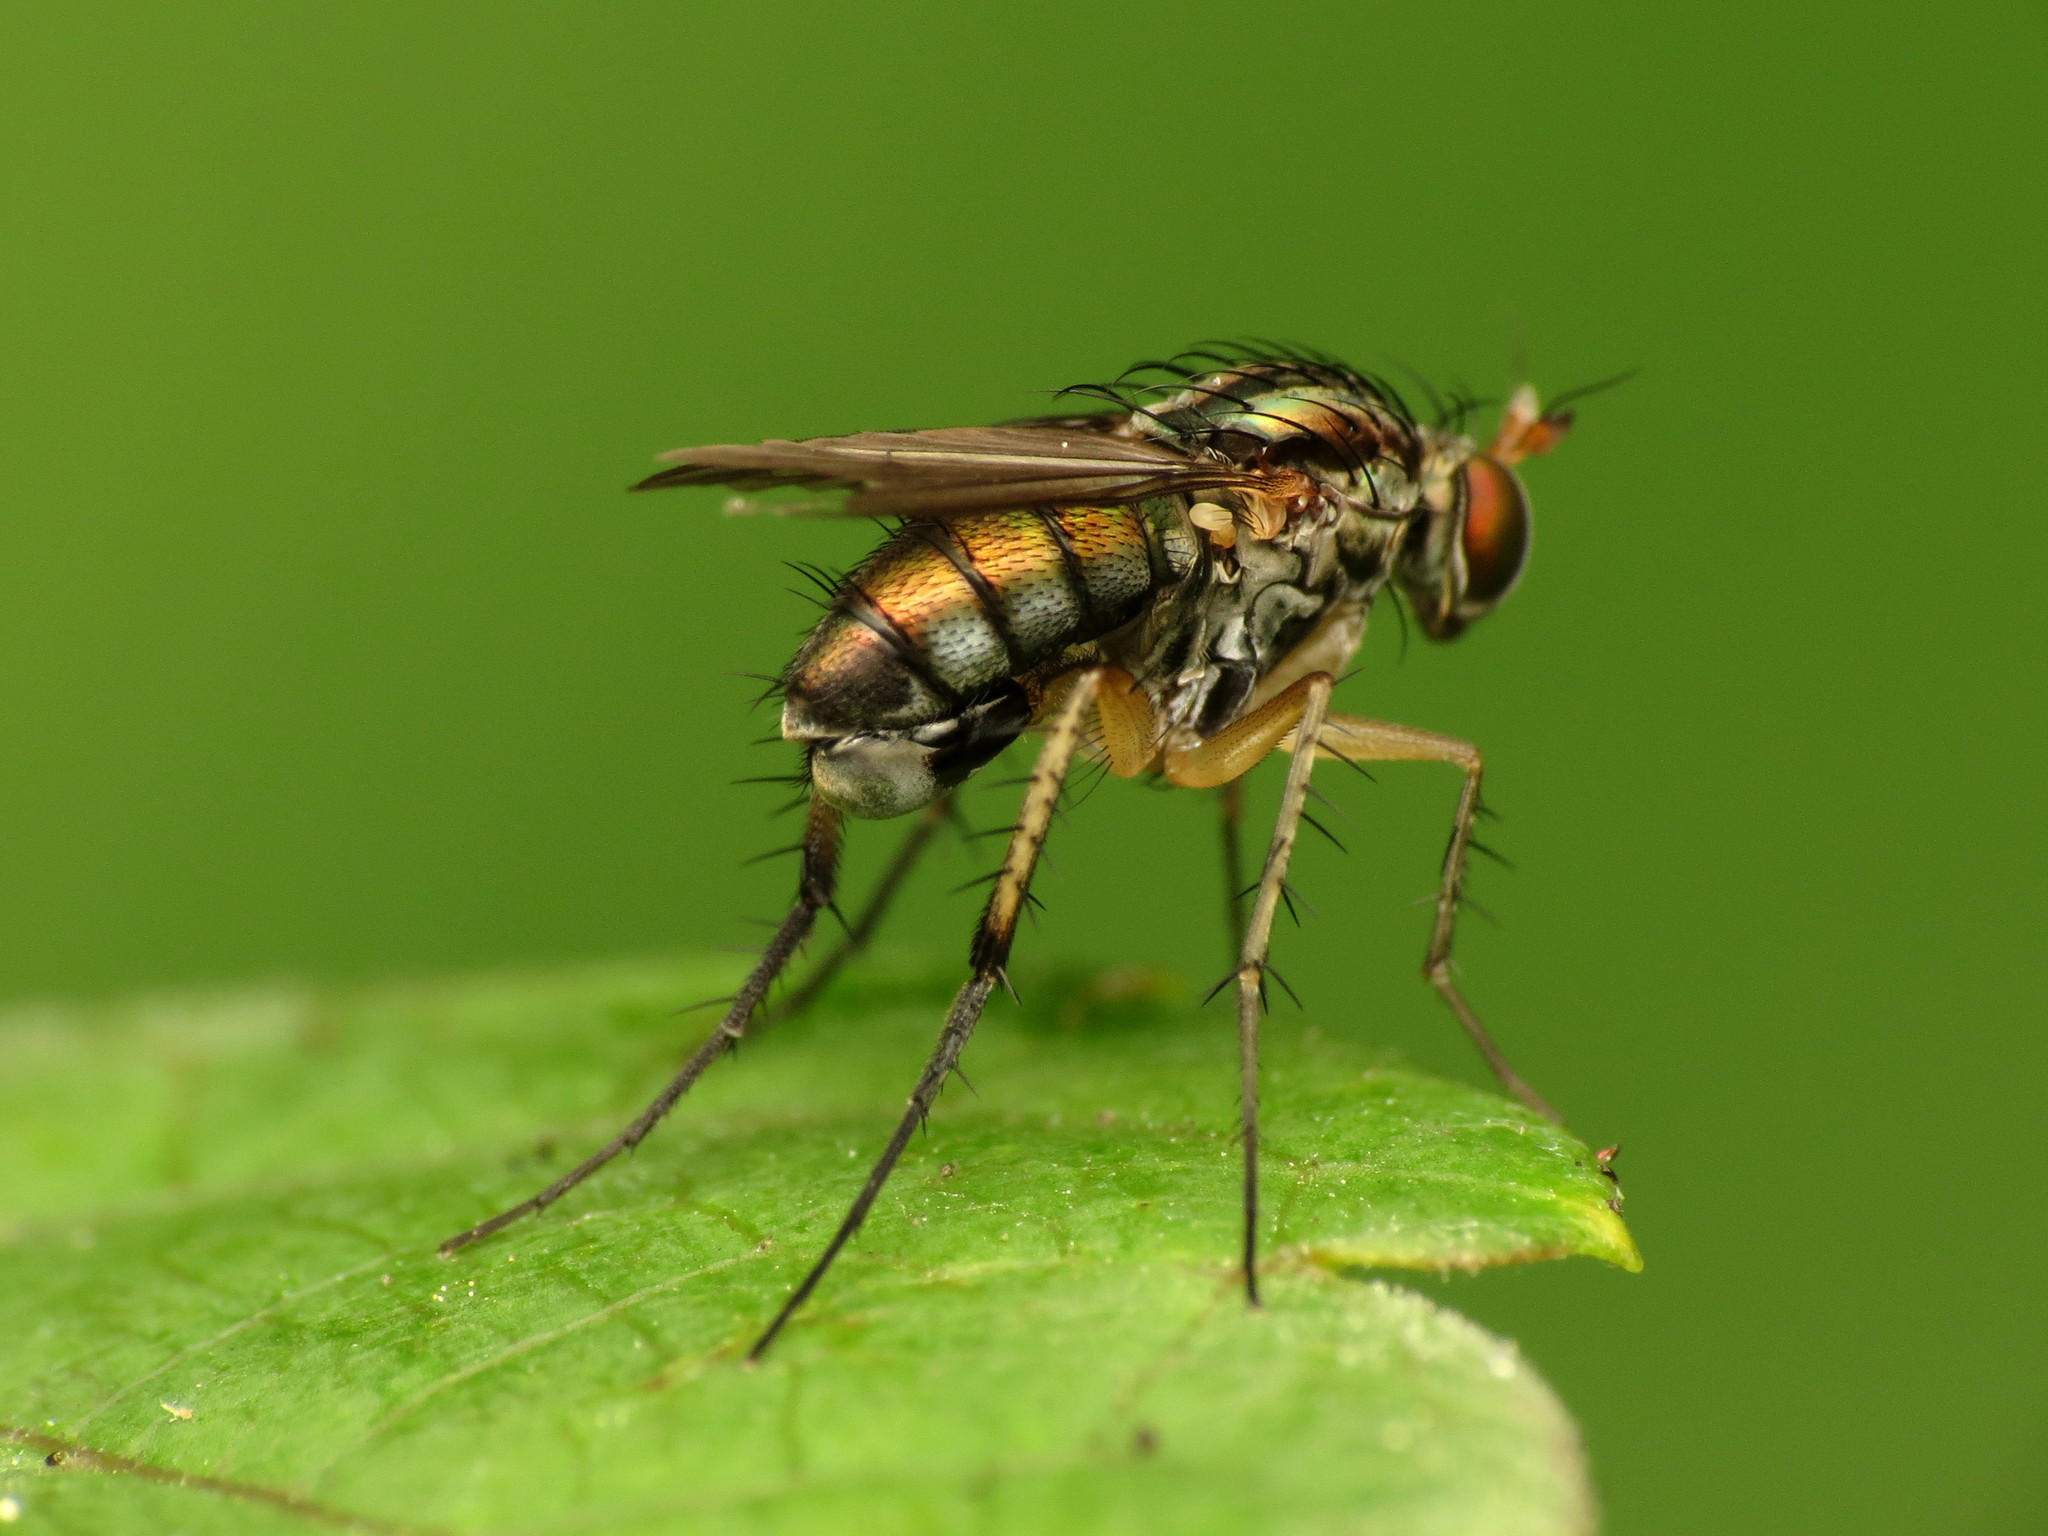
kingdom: Animalia
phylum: Arthropoda
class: Insecta
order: Diptera
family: Dolichopodidae
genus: Dolichopus
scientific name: Dolichopus reflectus
